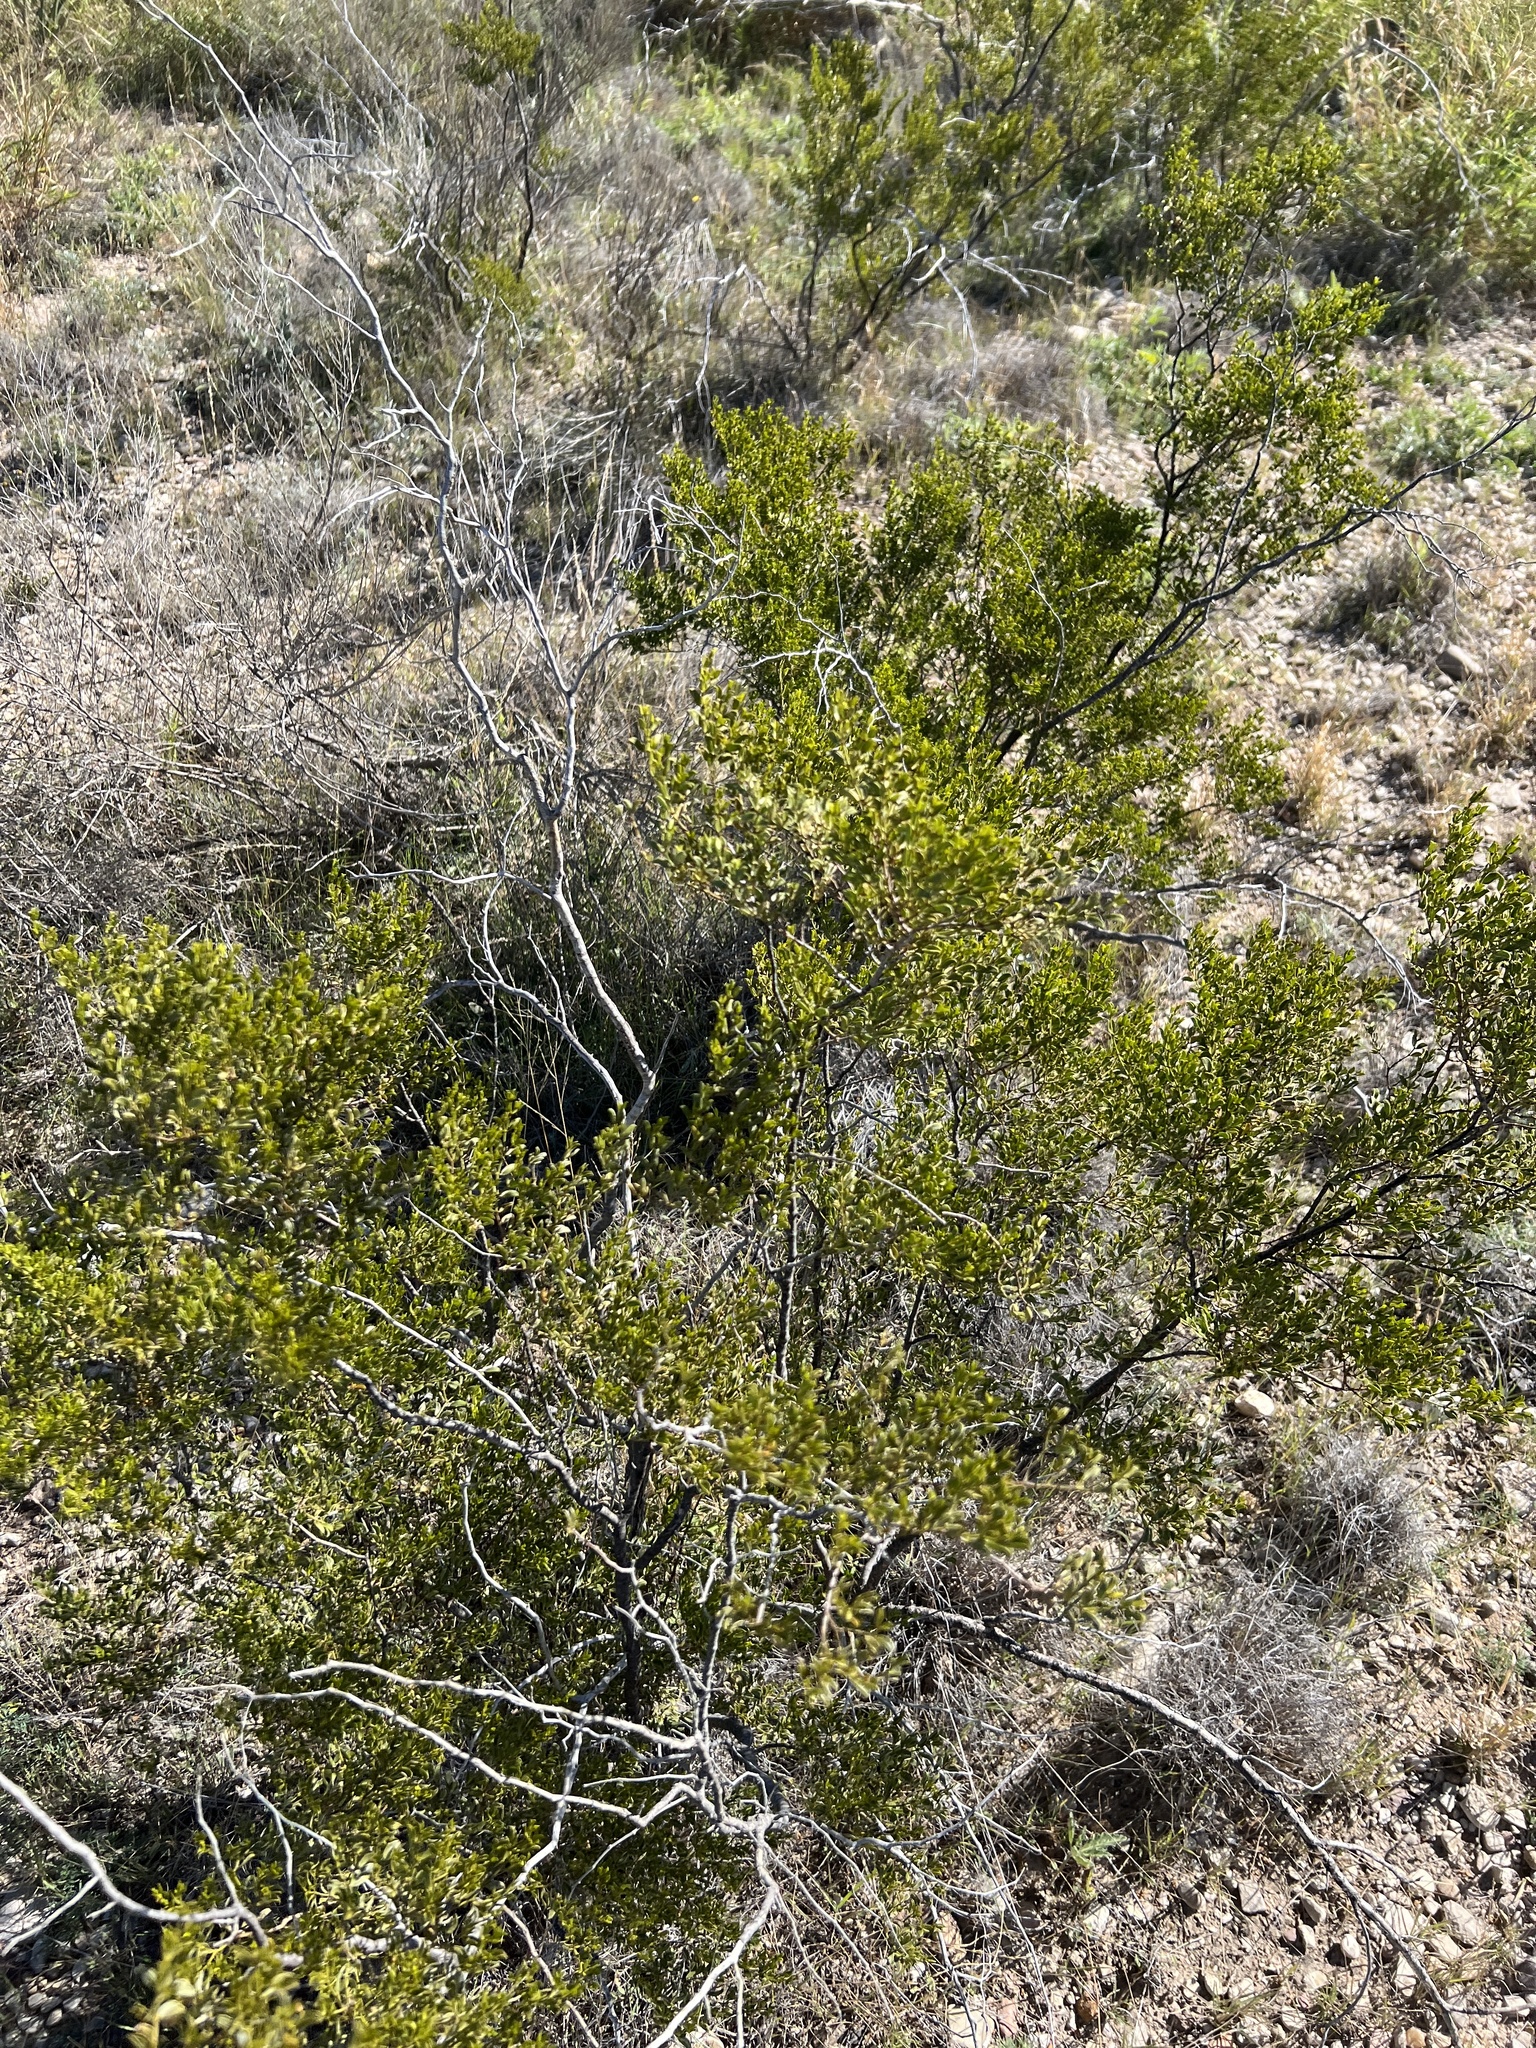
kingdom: Plantae
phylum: Tracheophyta
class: Magnoliopsida
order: Zygophyllales
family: Zygophyllaceae
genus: Larrea
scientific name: Larrea tridentata
